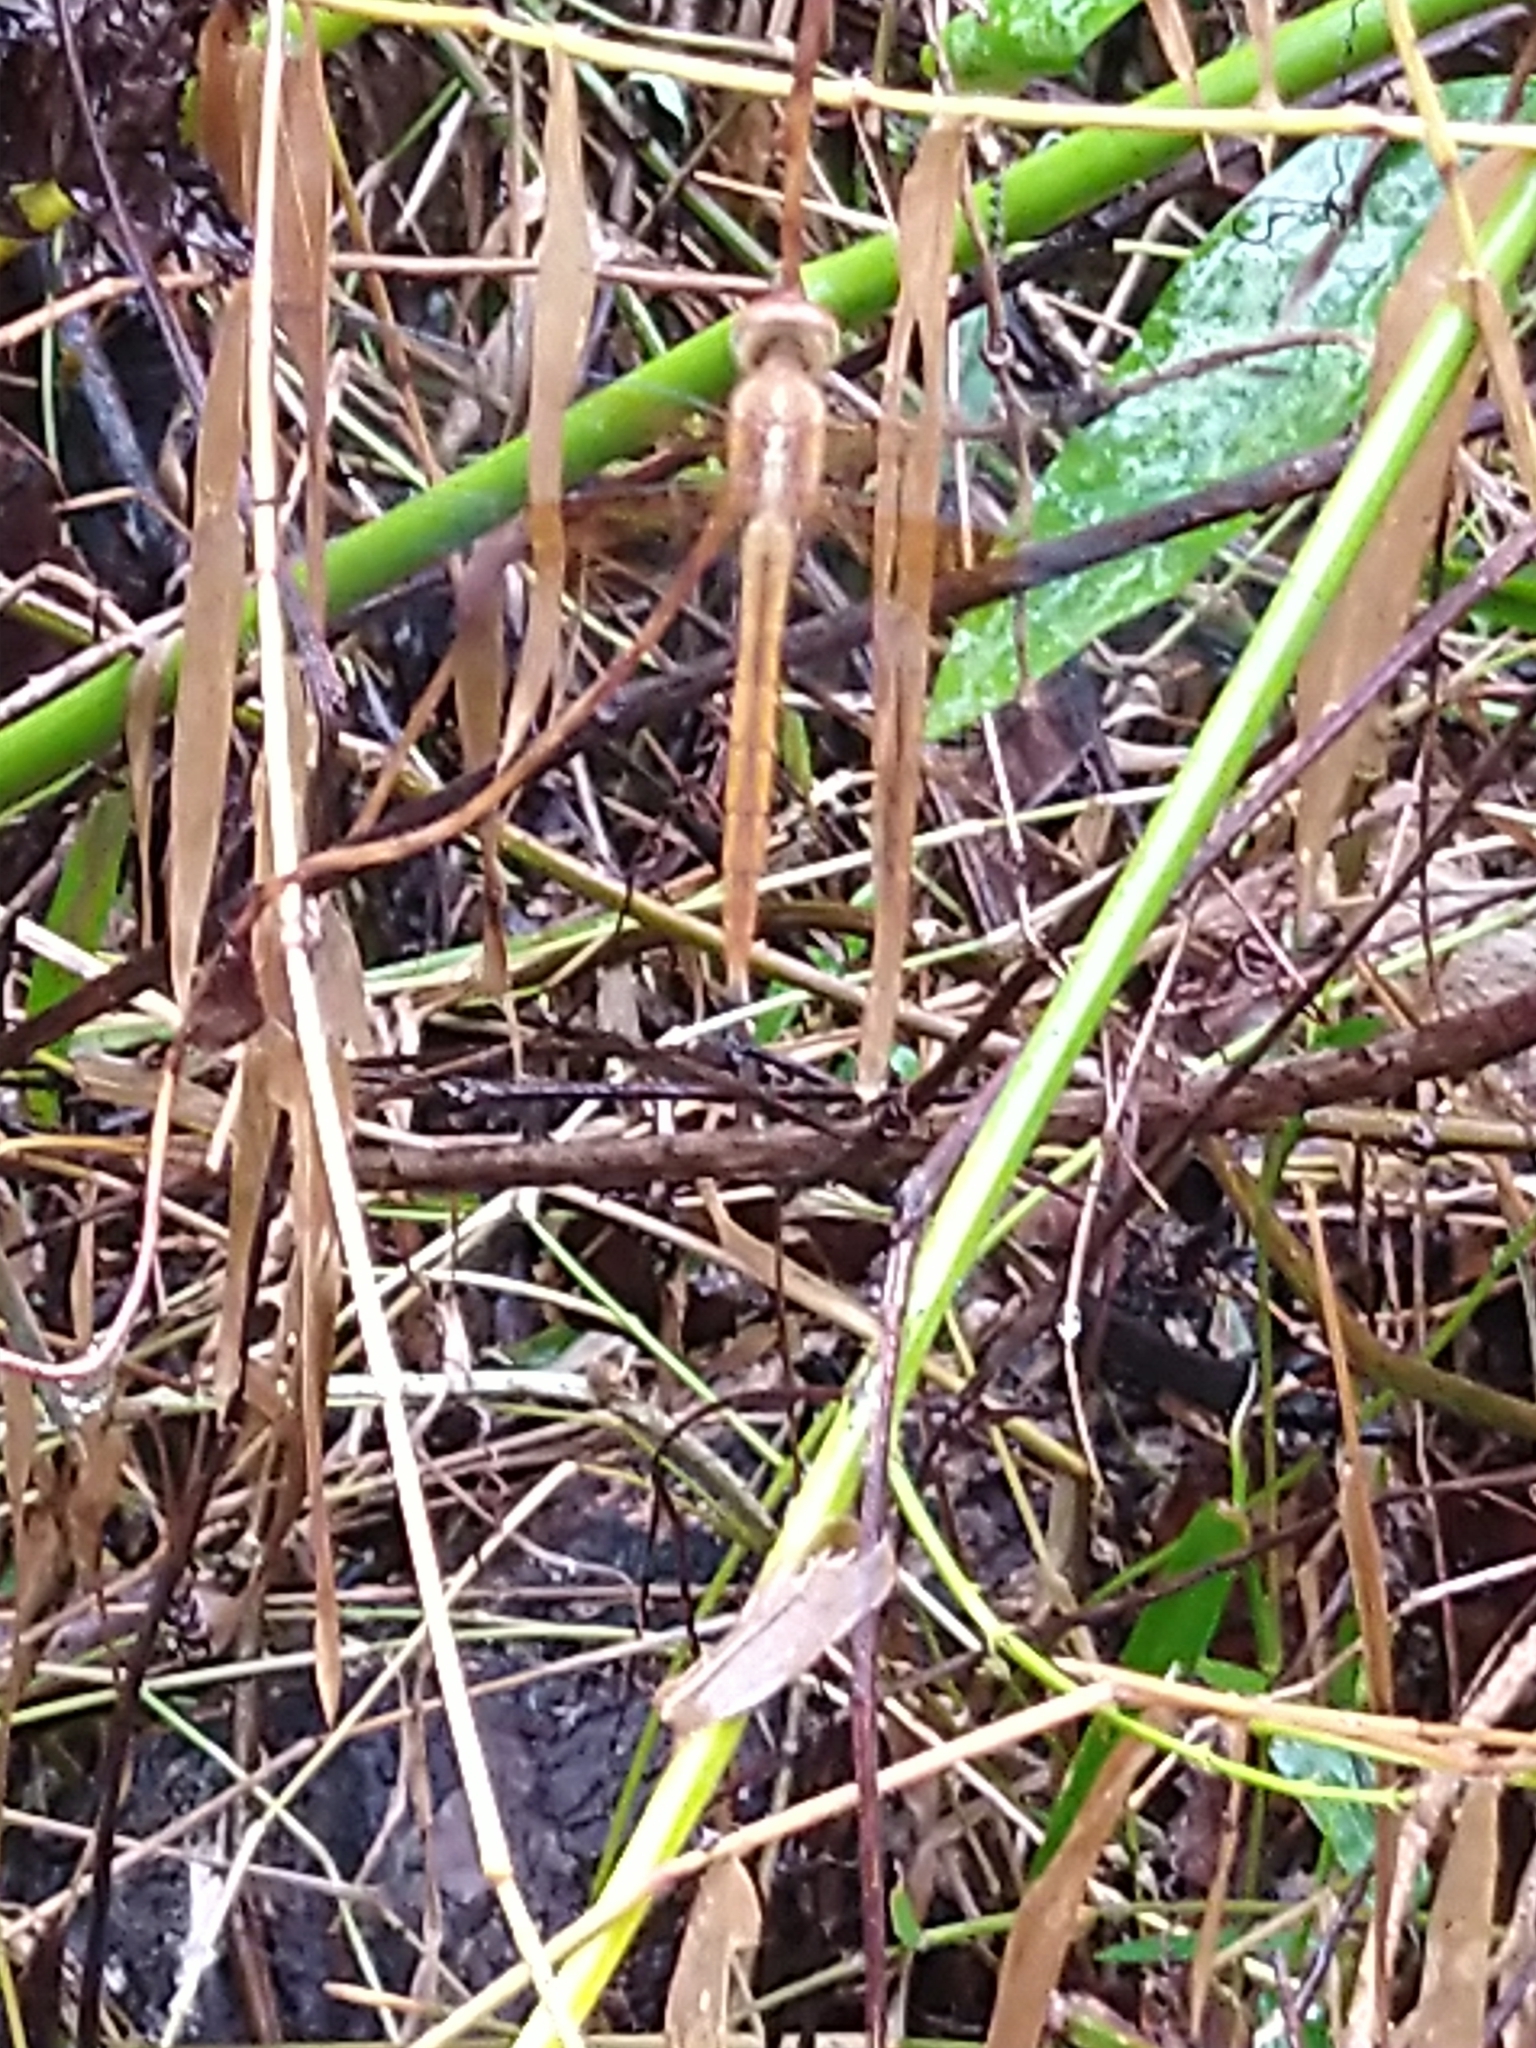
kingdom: Animalia
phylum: Arthropoda
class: Insecta
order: Odonata
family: Libellulidae
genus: Tholymis
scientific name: Tholymis tillarga
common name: Coral-tailed cloud wing
